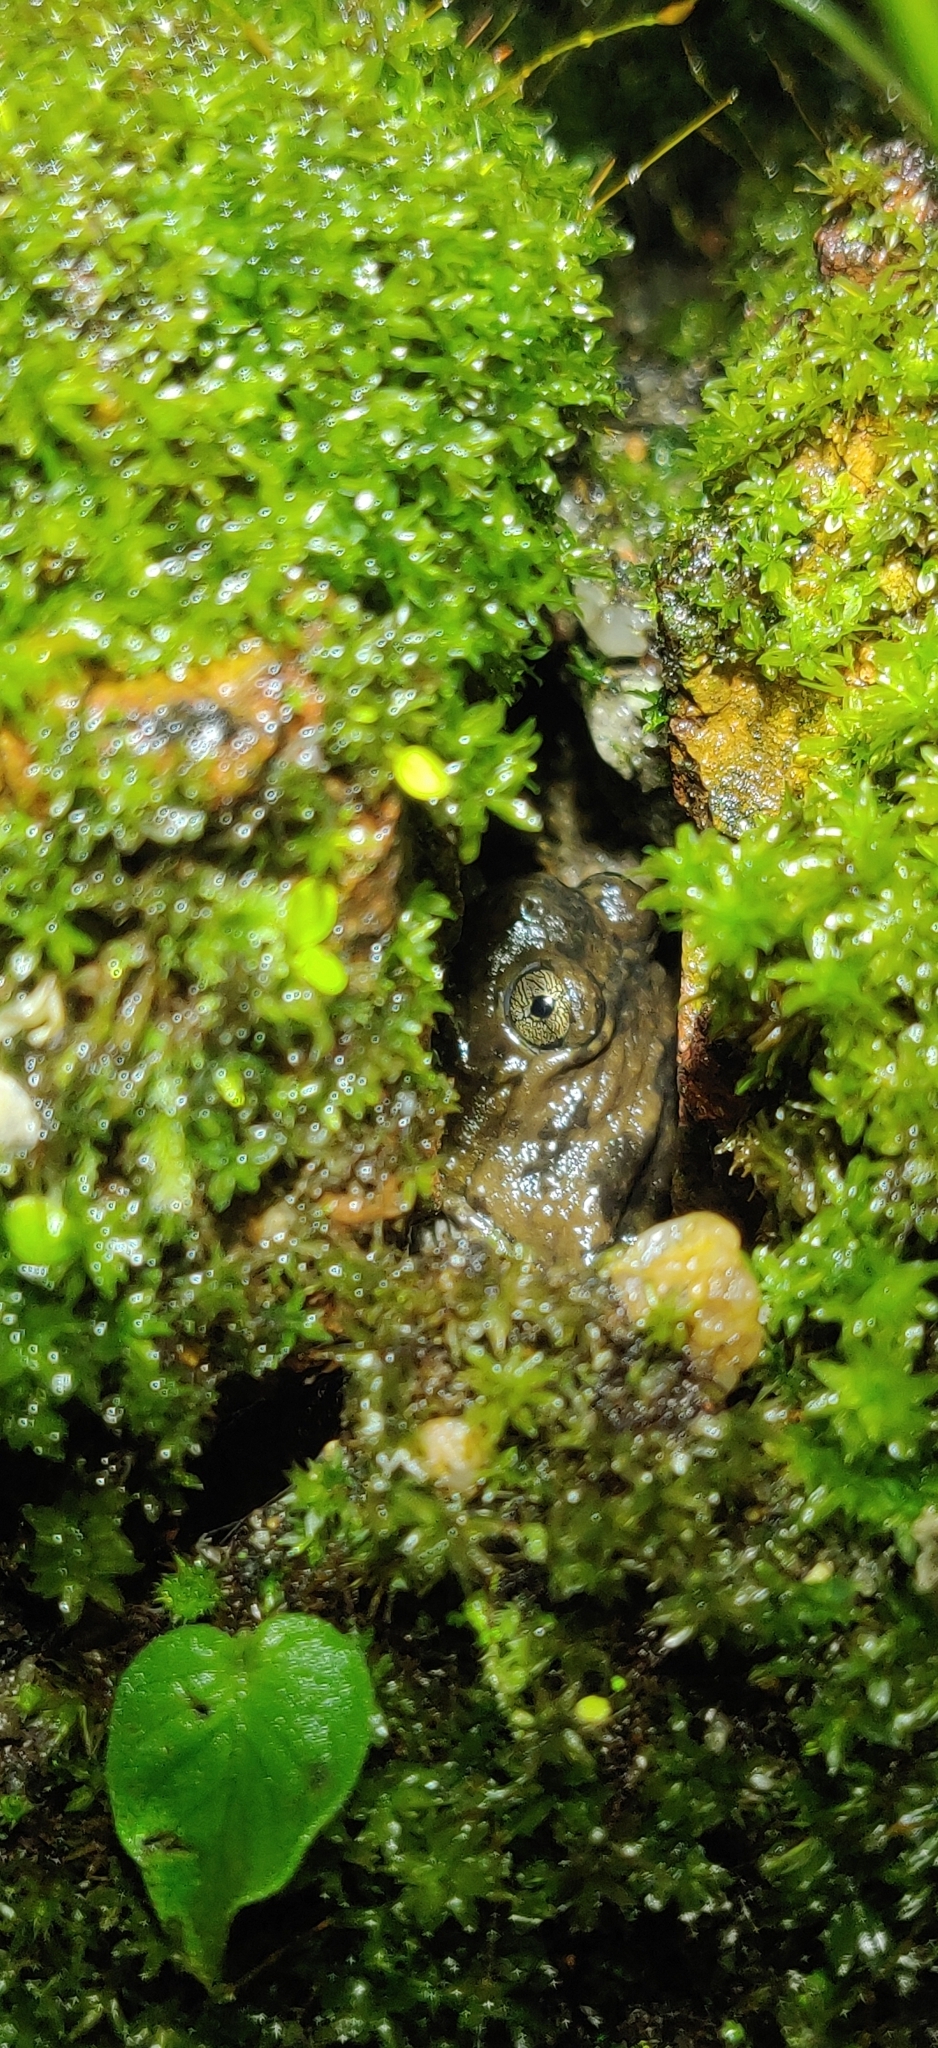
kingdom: Animalia
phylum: Chordata
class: Amphibia
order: Anura
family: Microhylidae
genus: Uperodon
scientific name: Uperodon mormoratus
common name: Indian dot frog
